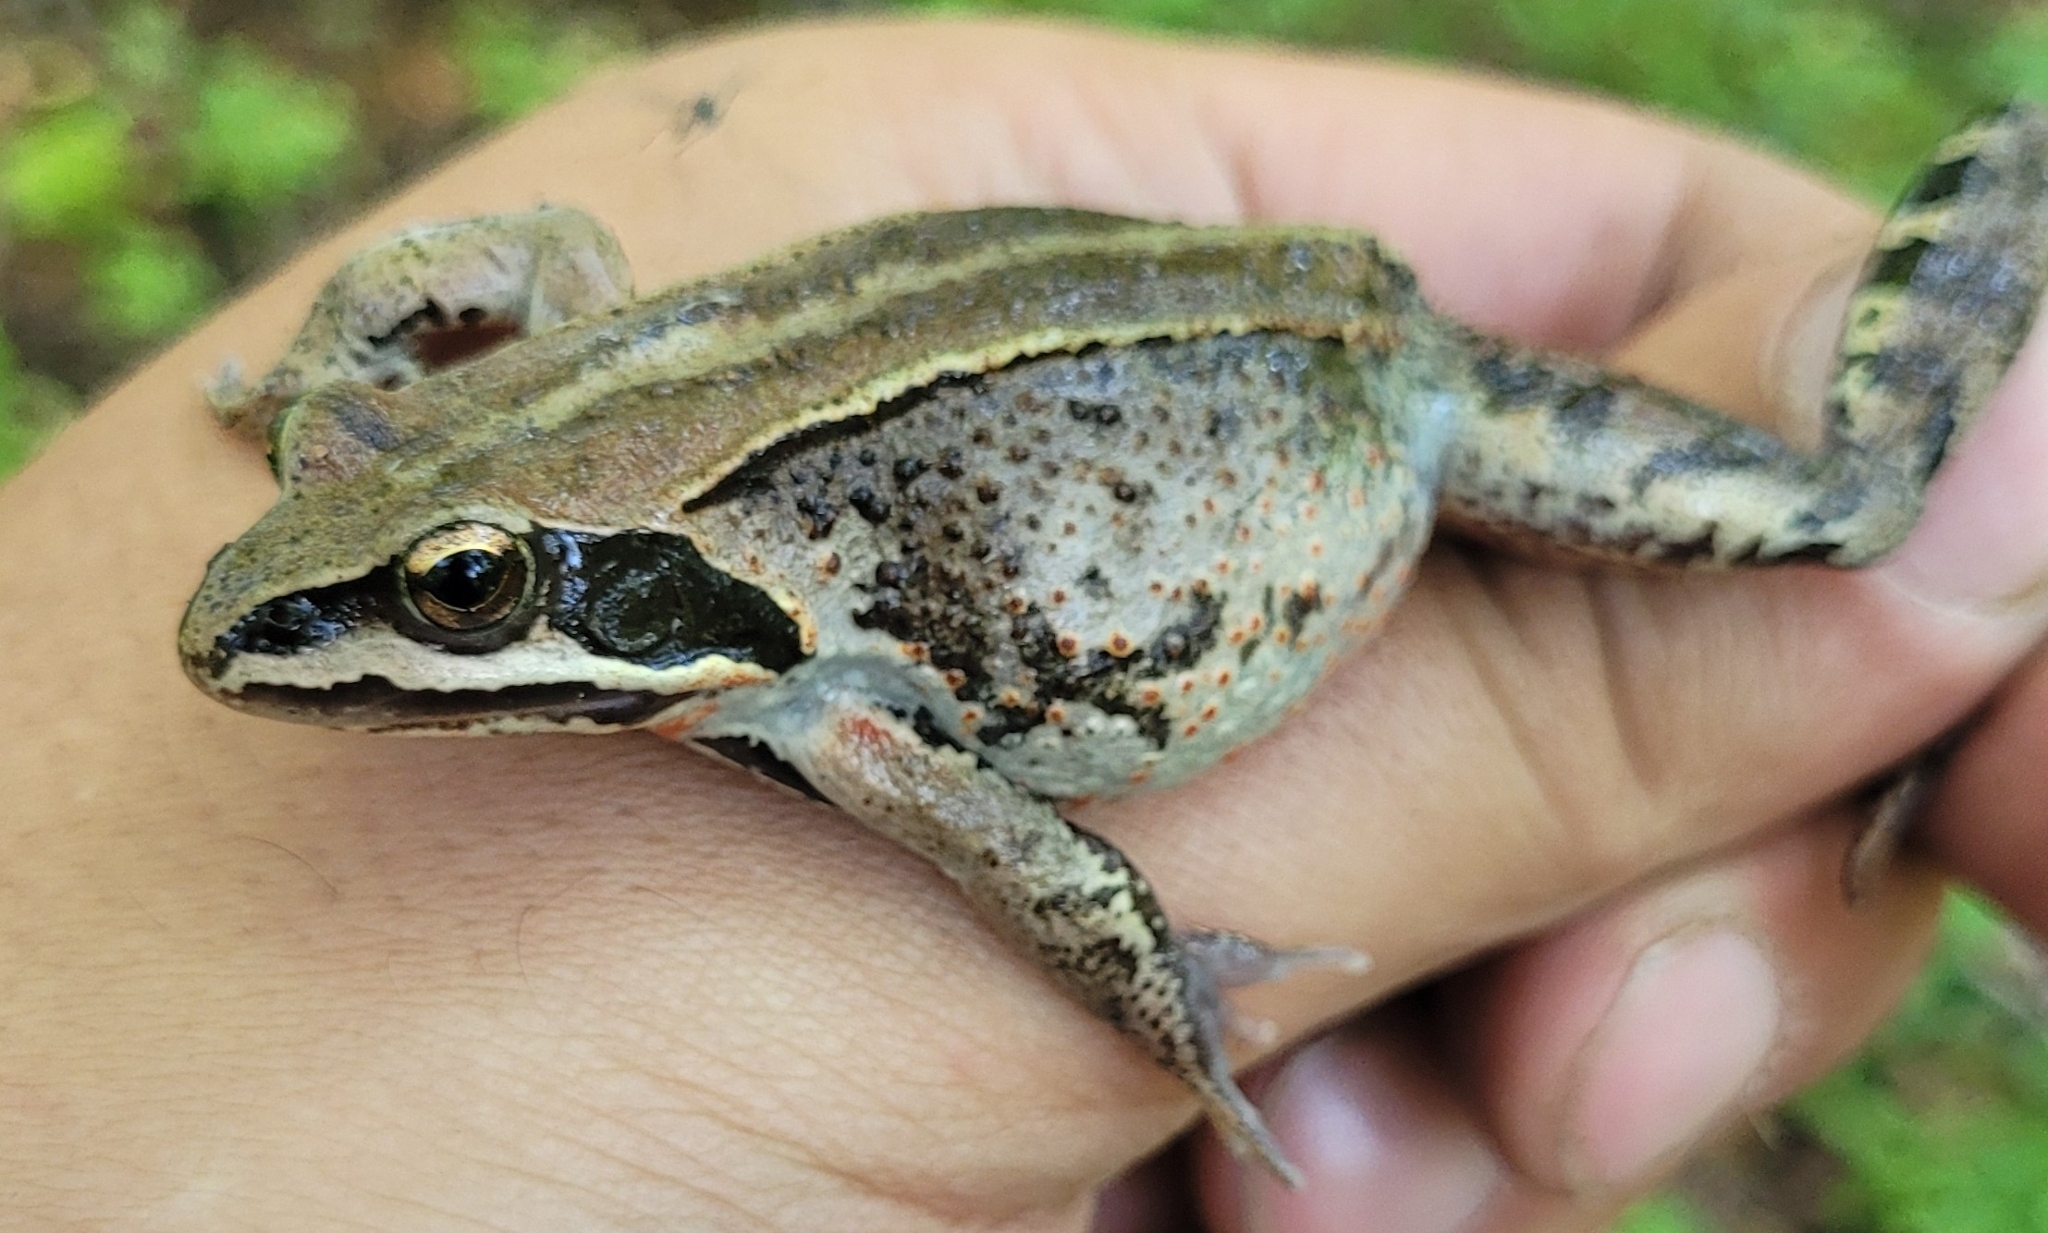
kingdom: Animalia
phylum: Chordata
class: Amphibia
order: Anura
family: Ranidae
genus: Rana
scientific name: Rana amurensis
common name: Amur brown frog
